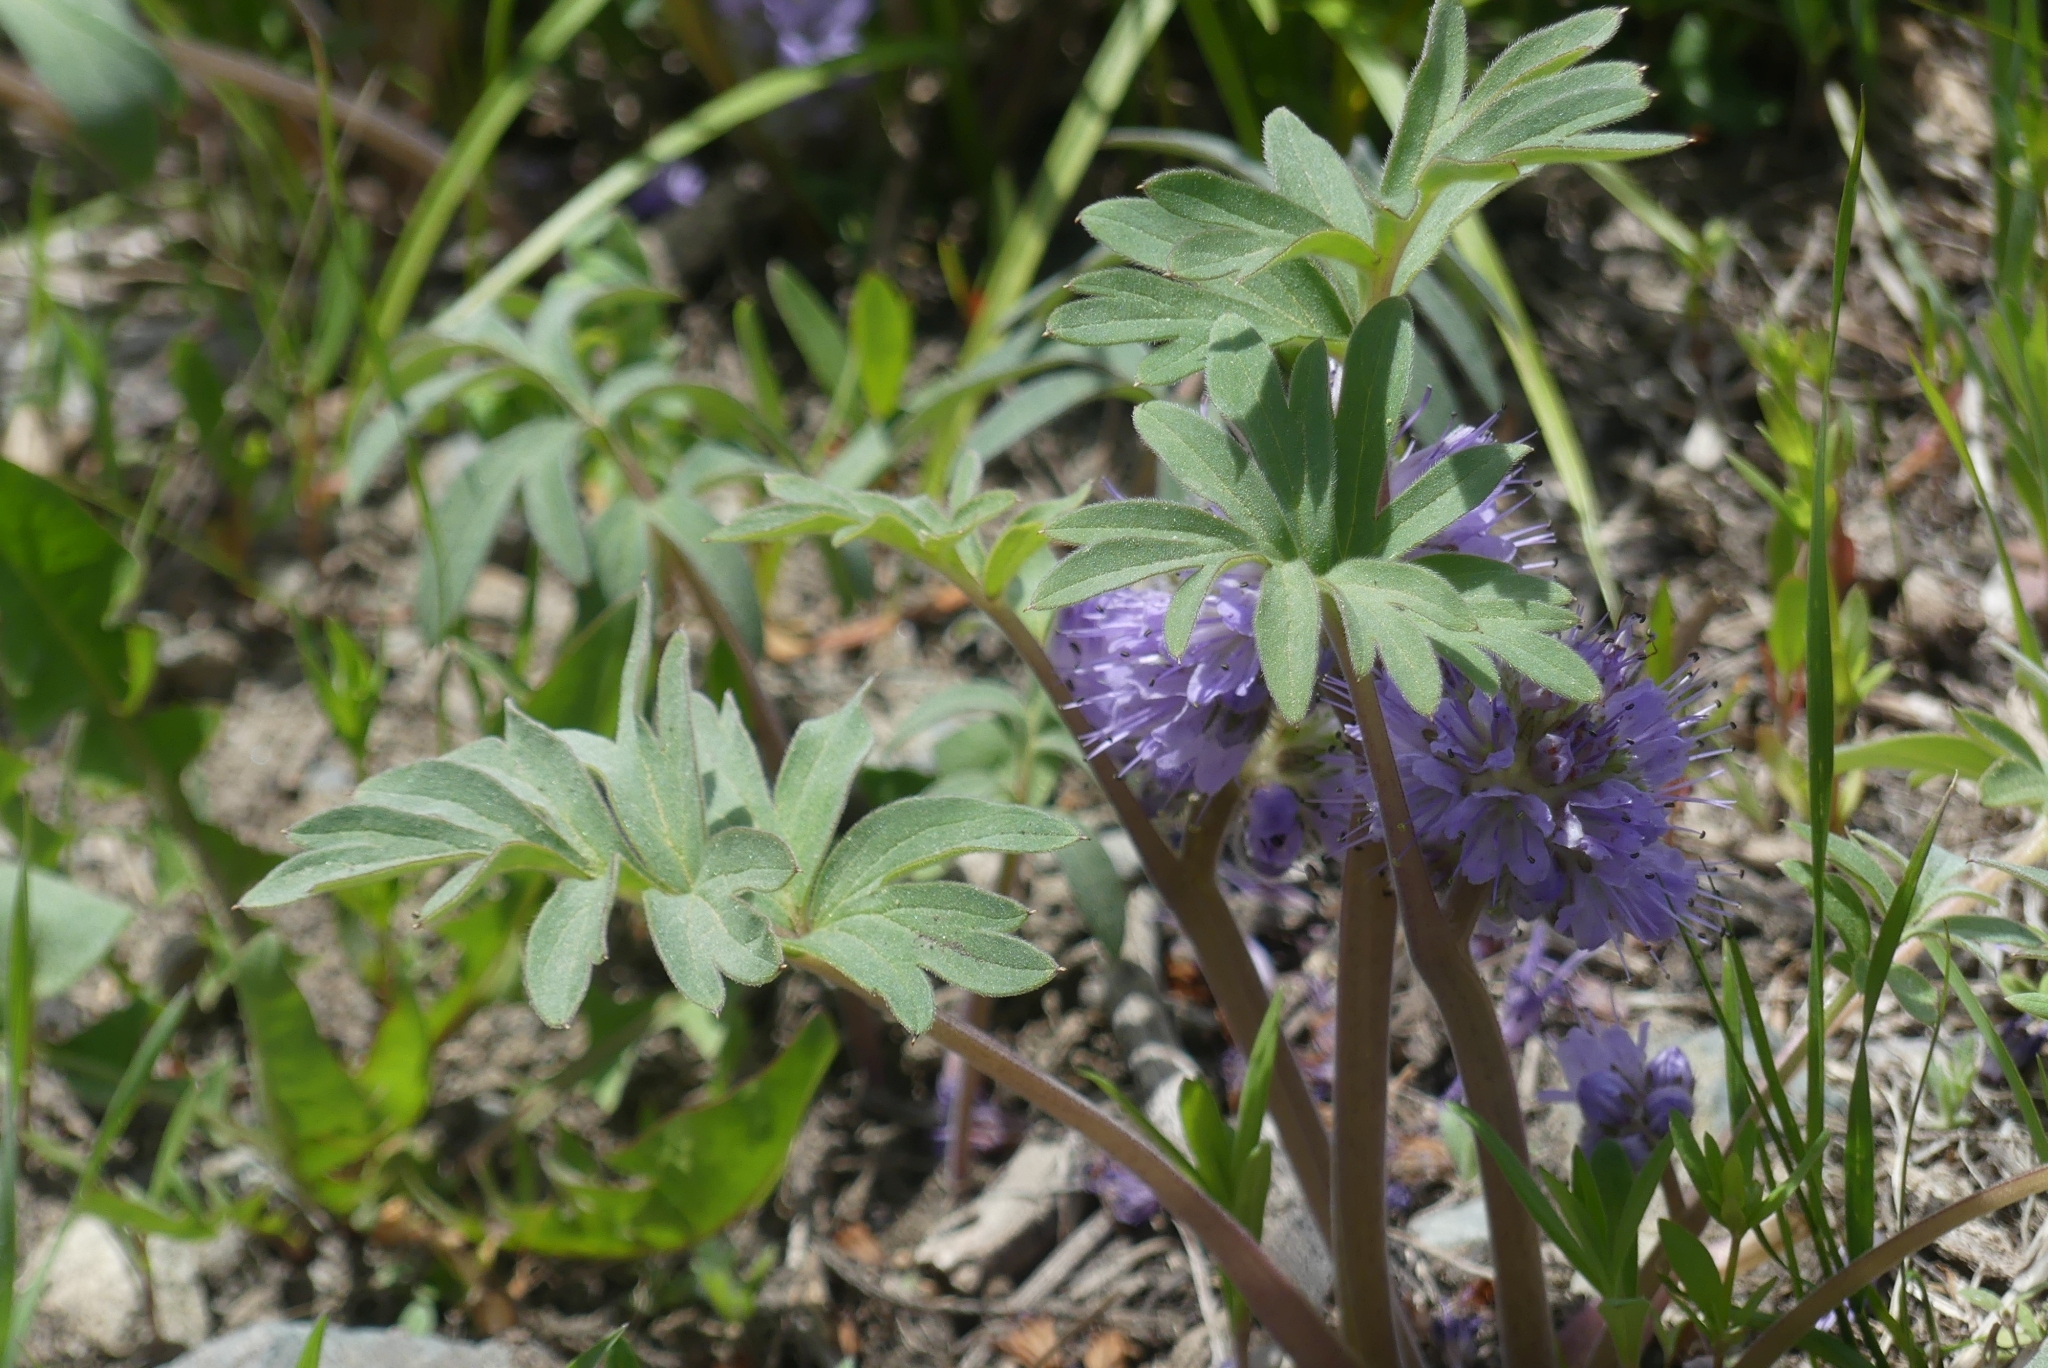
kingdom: Plantae
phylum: Tracheophyta
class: Magnoliopsida
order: Boraginales
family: Hydrophyllaceae
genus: Hydrophyllum
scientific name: Hydrophyllum capitatum
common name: Woollen-breeches
